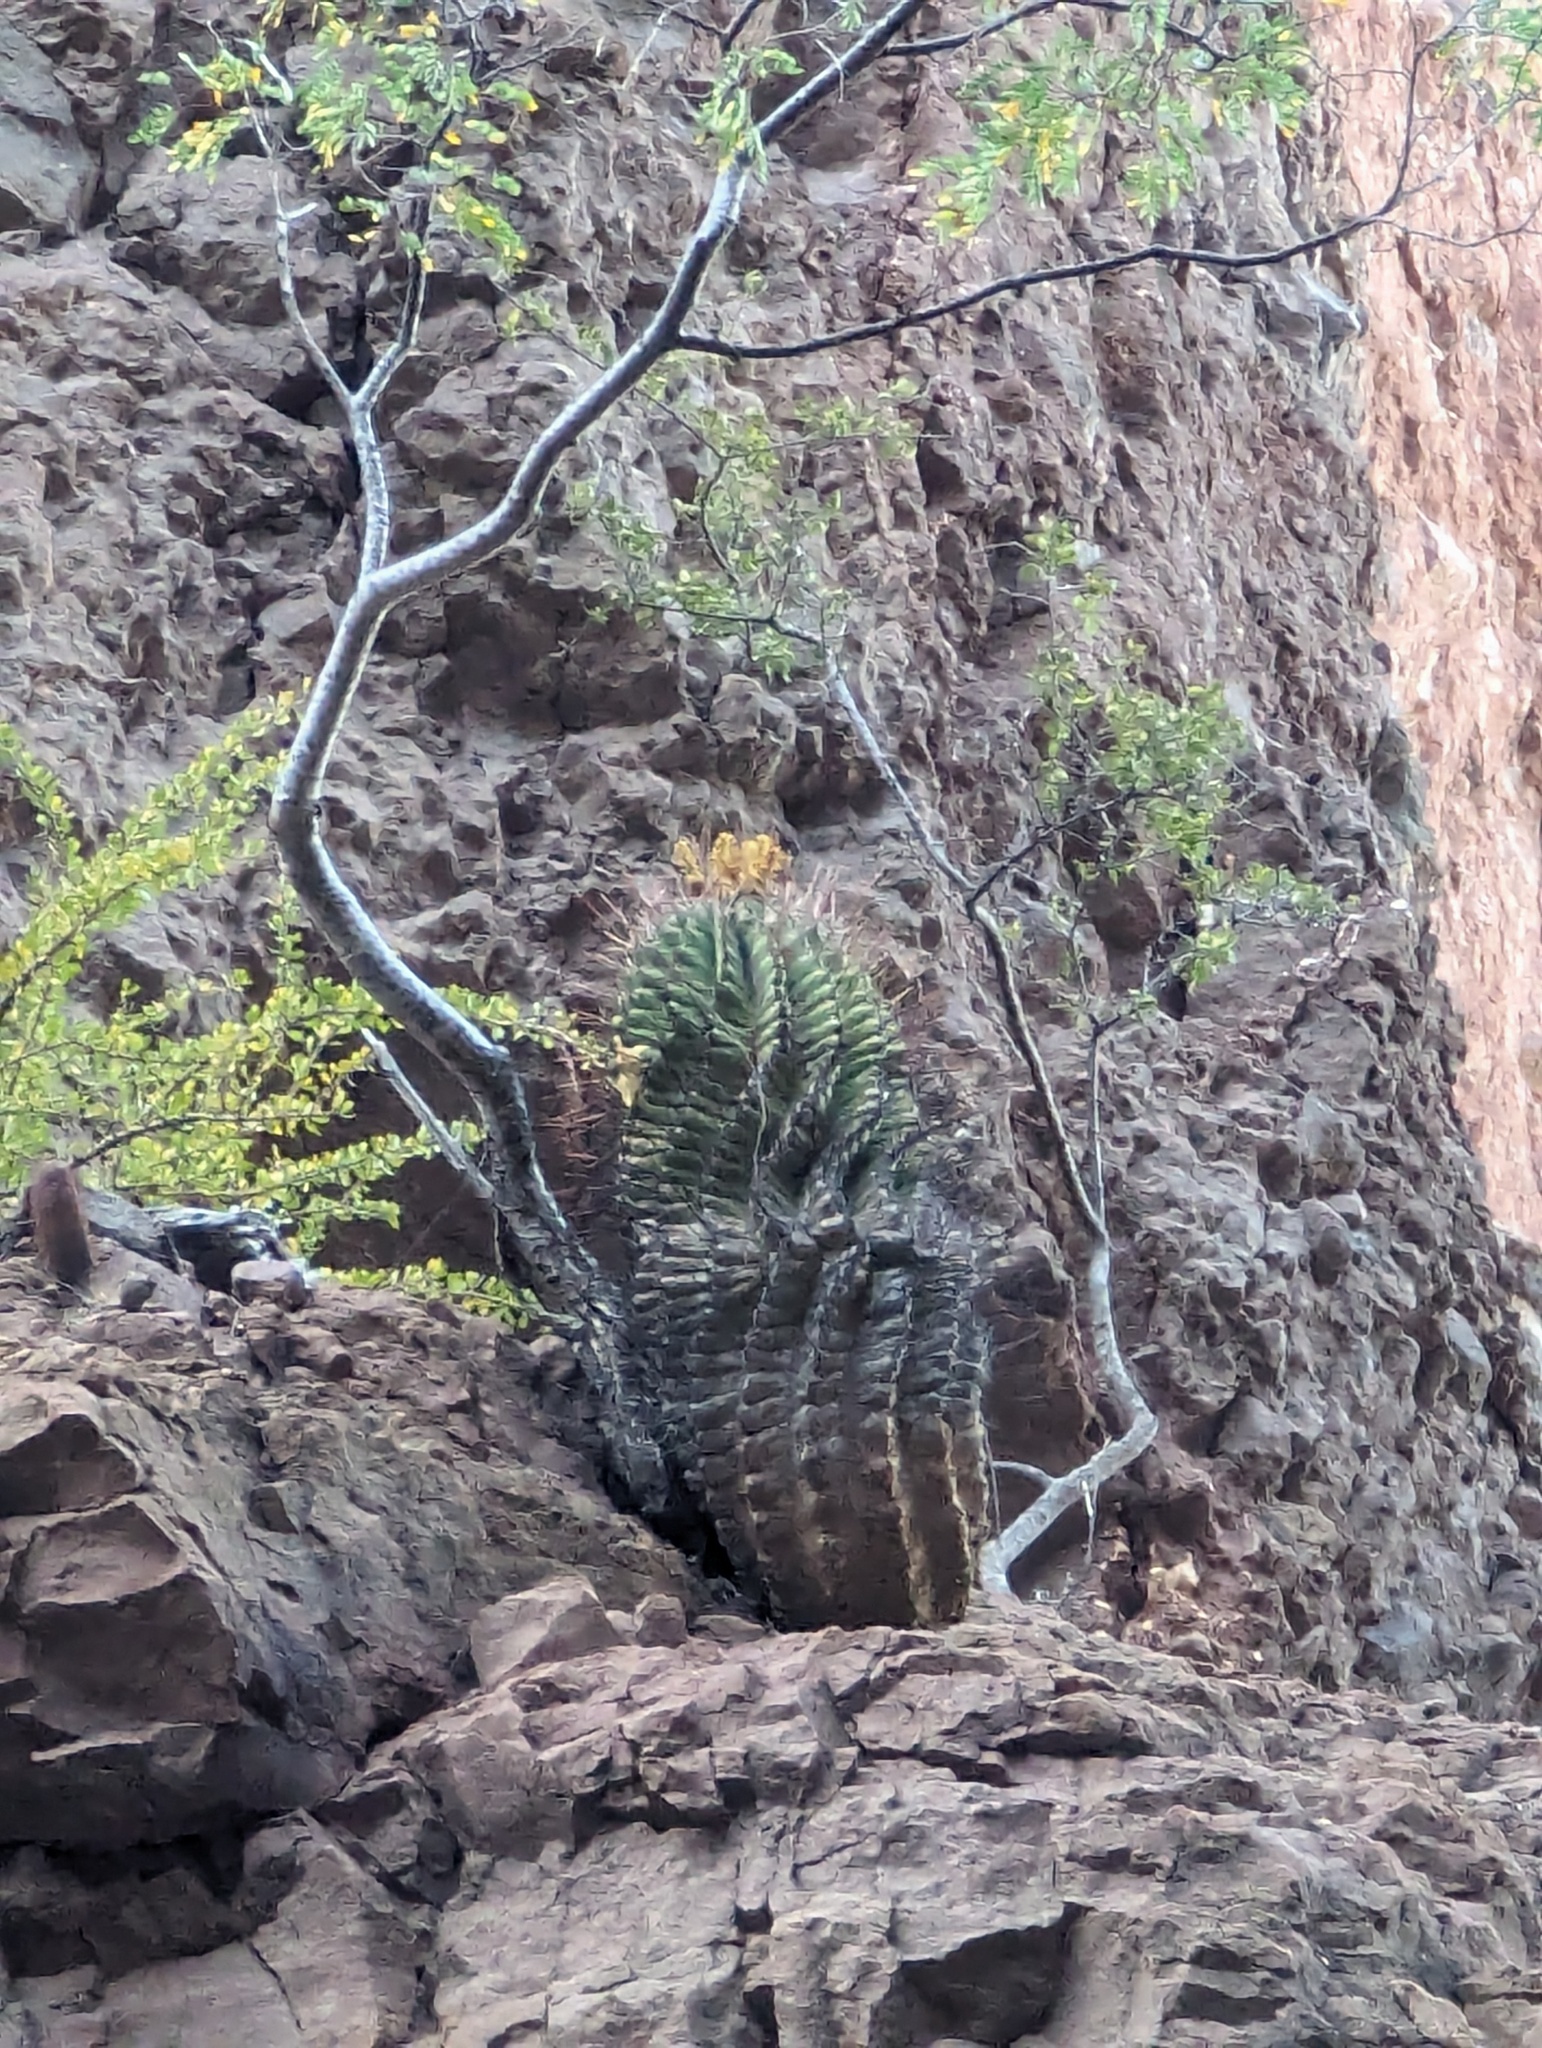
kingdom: Plantae
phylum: Tracheophyta
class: Magnoliopsida
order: Caryophyllales
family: Cactaceae
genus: Ferocactus
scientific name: Ferocactus emoryi
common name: Emory's barrel cactus
